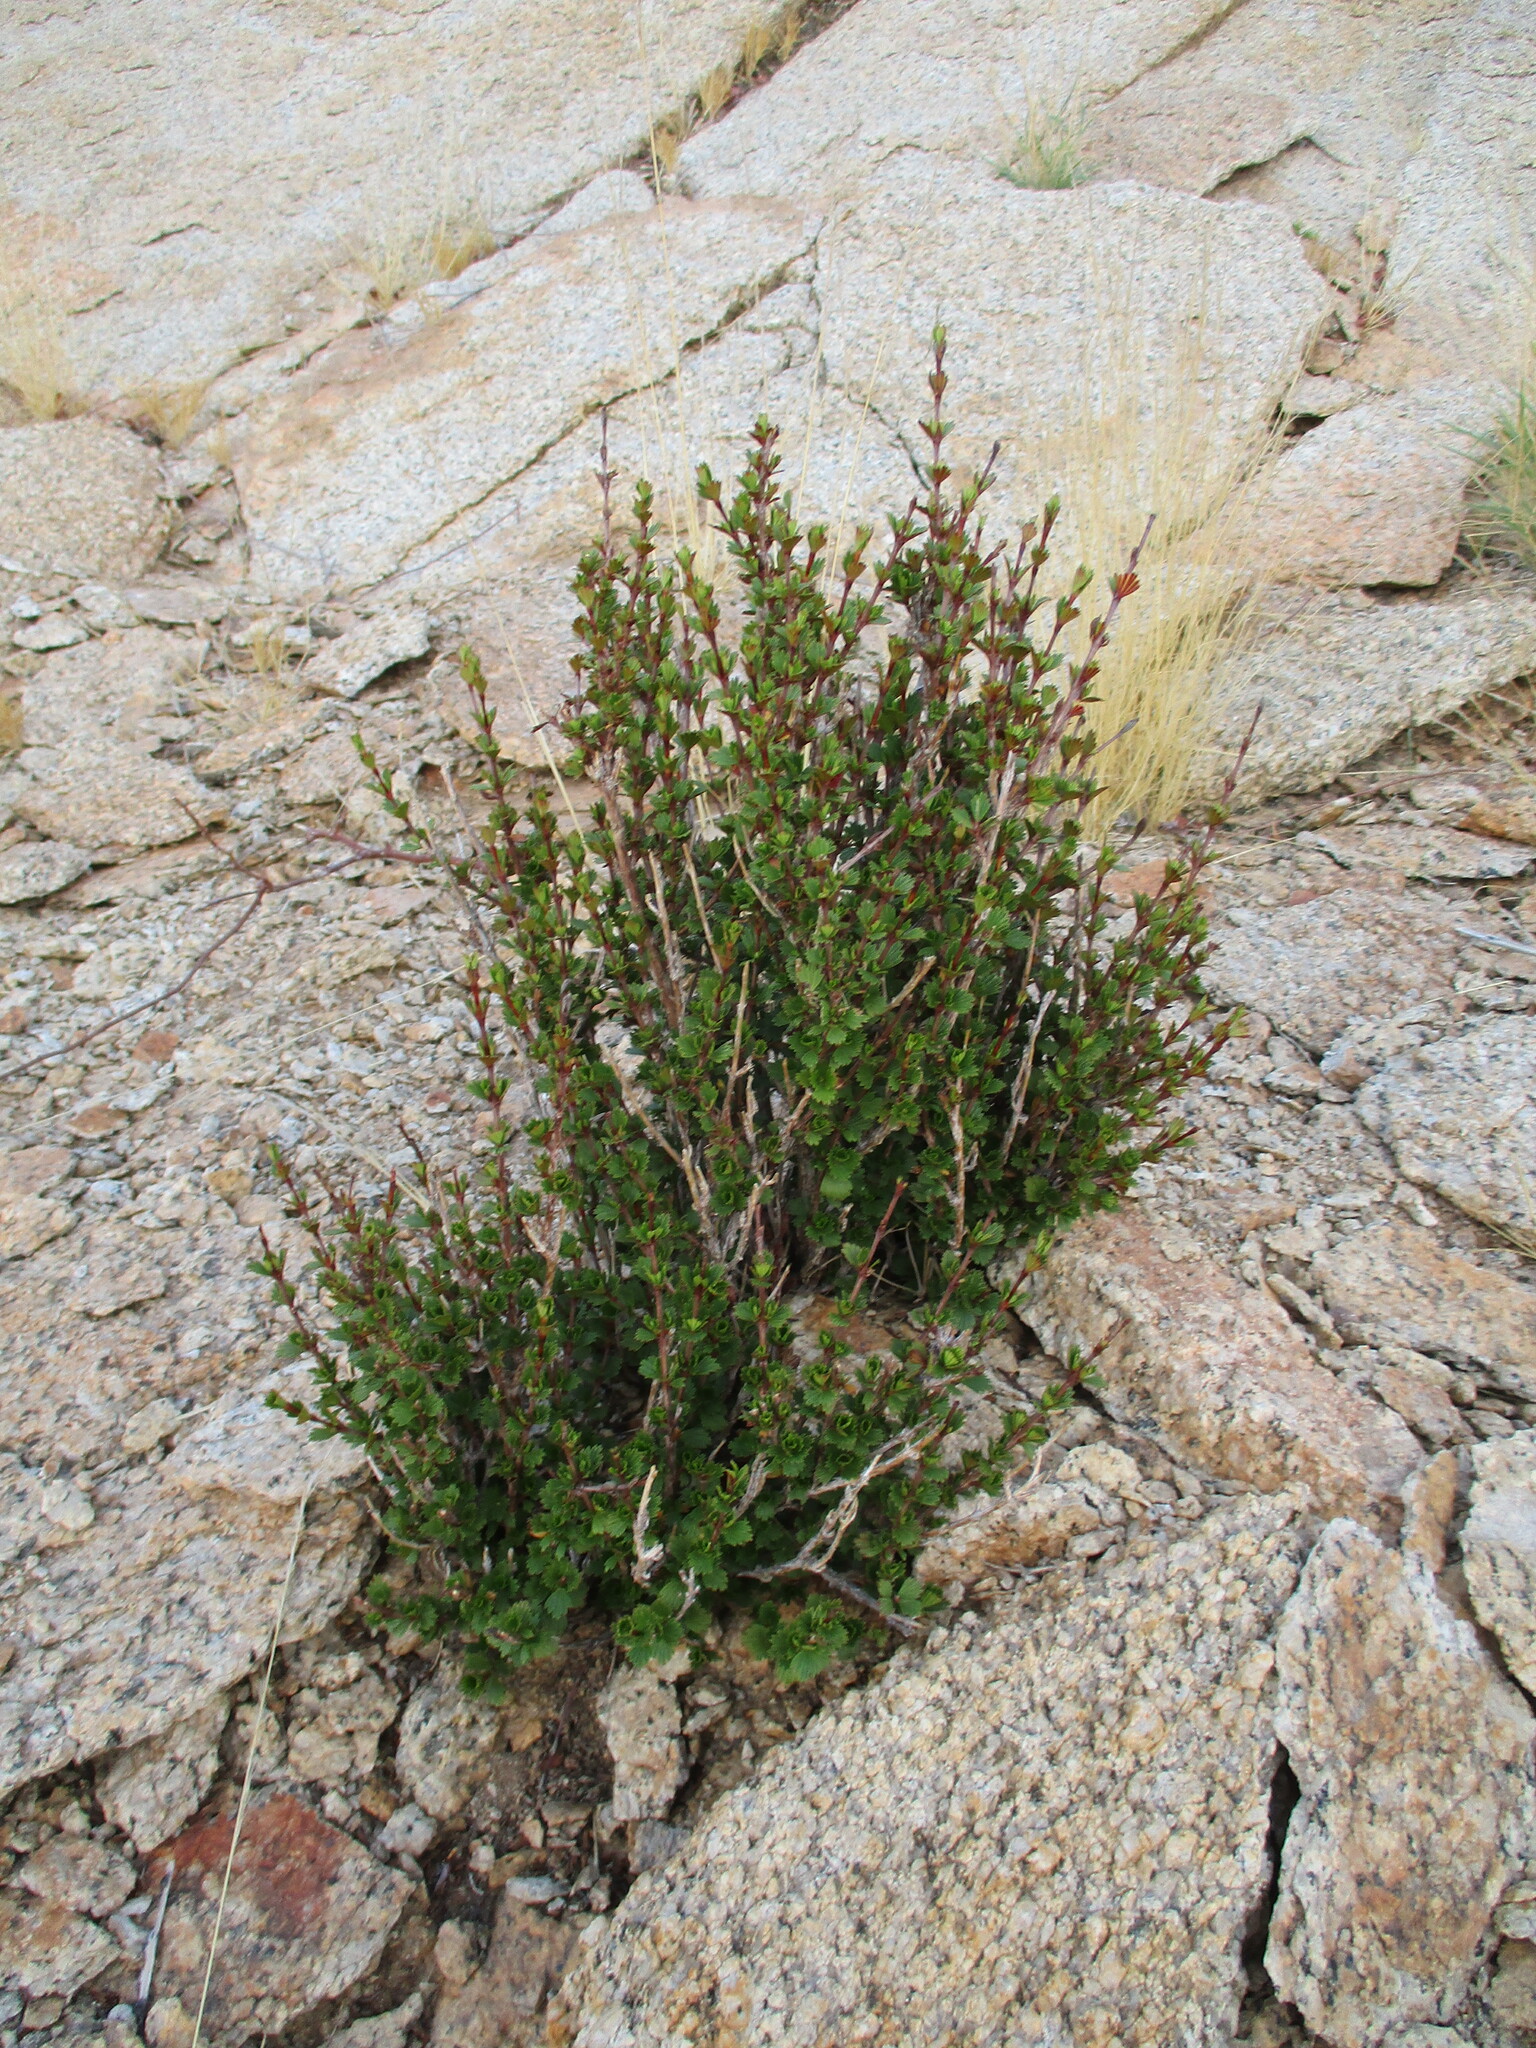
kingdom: Plantae
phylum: Tracheophyta
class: Magnoliopsida
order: Gunnerales
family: Myrothamnaceae
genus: Myrothamnus
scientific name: Myrothamnus flabellifolius
